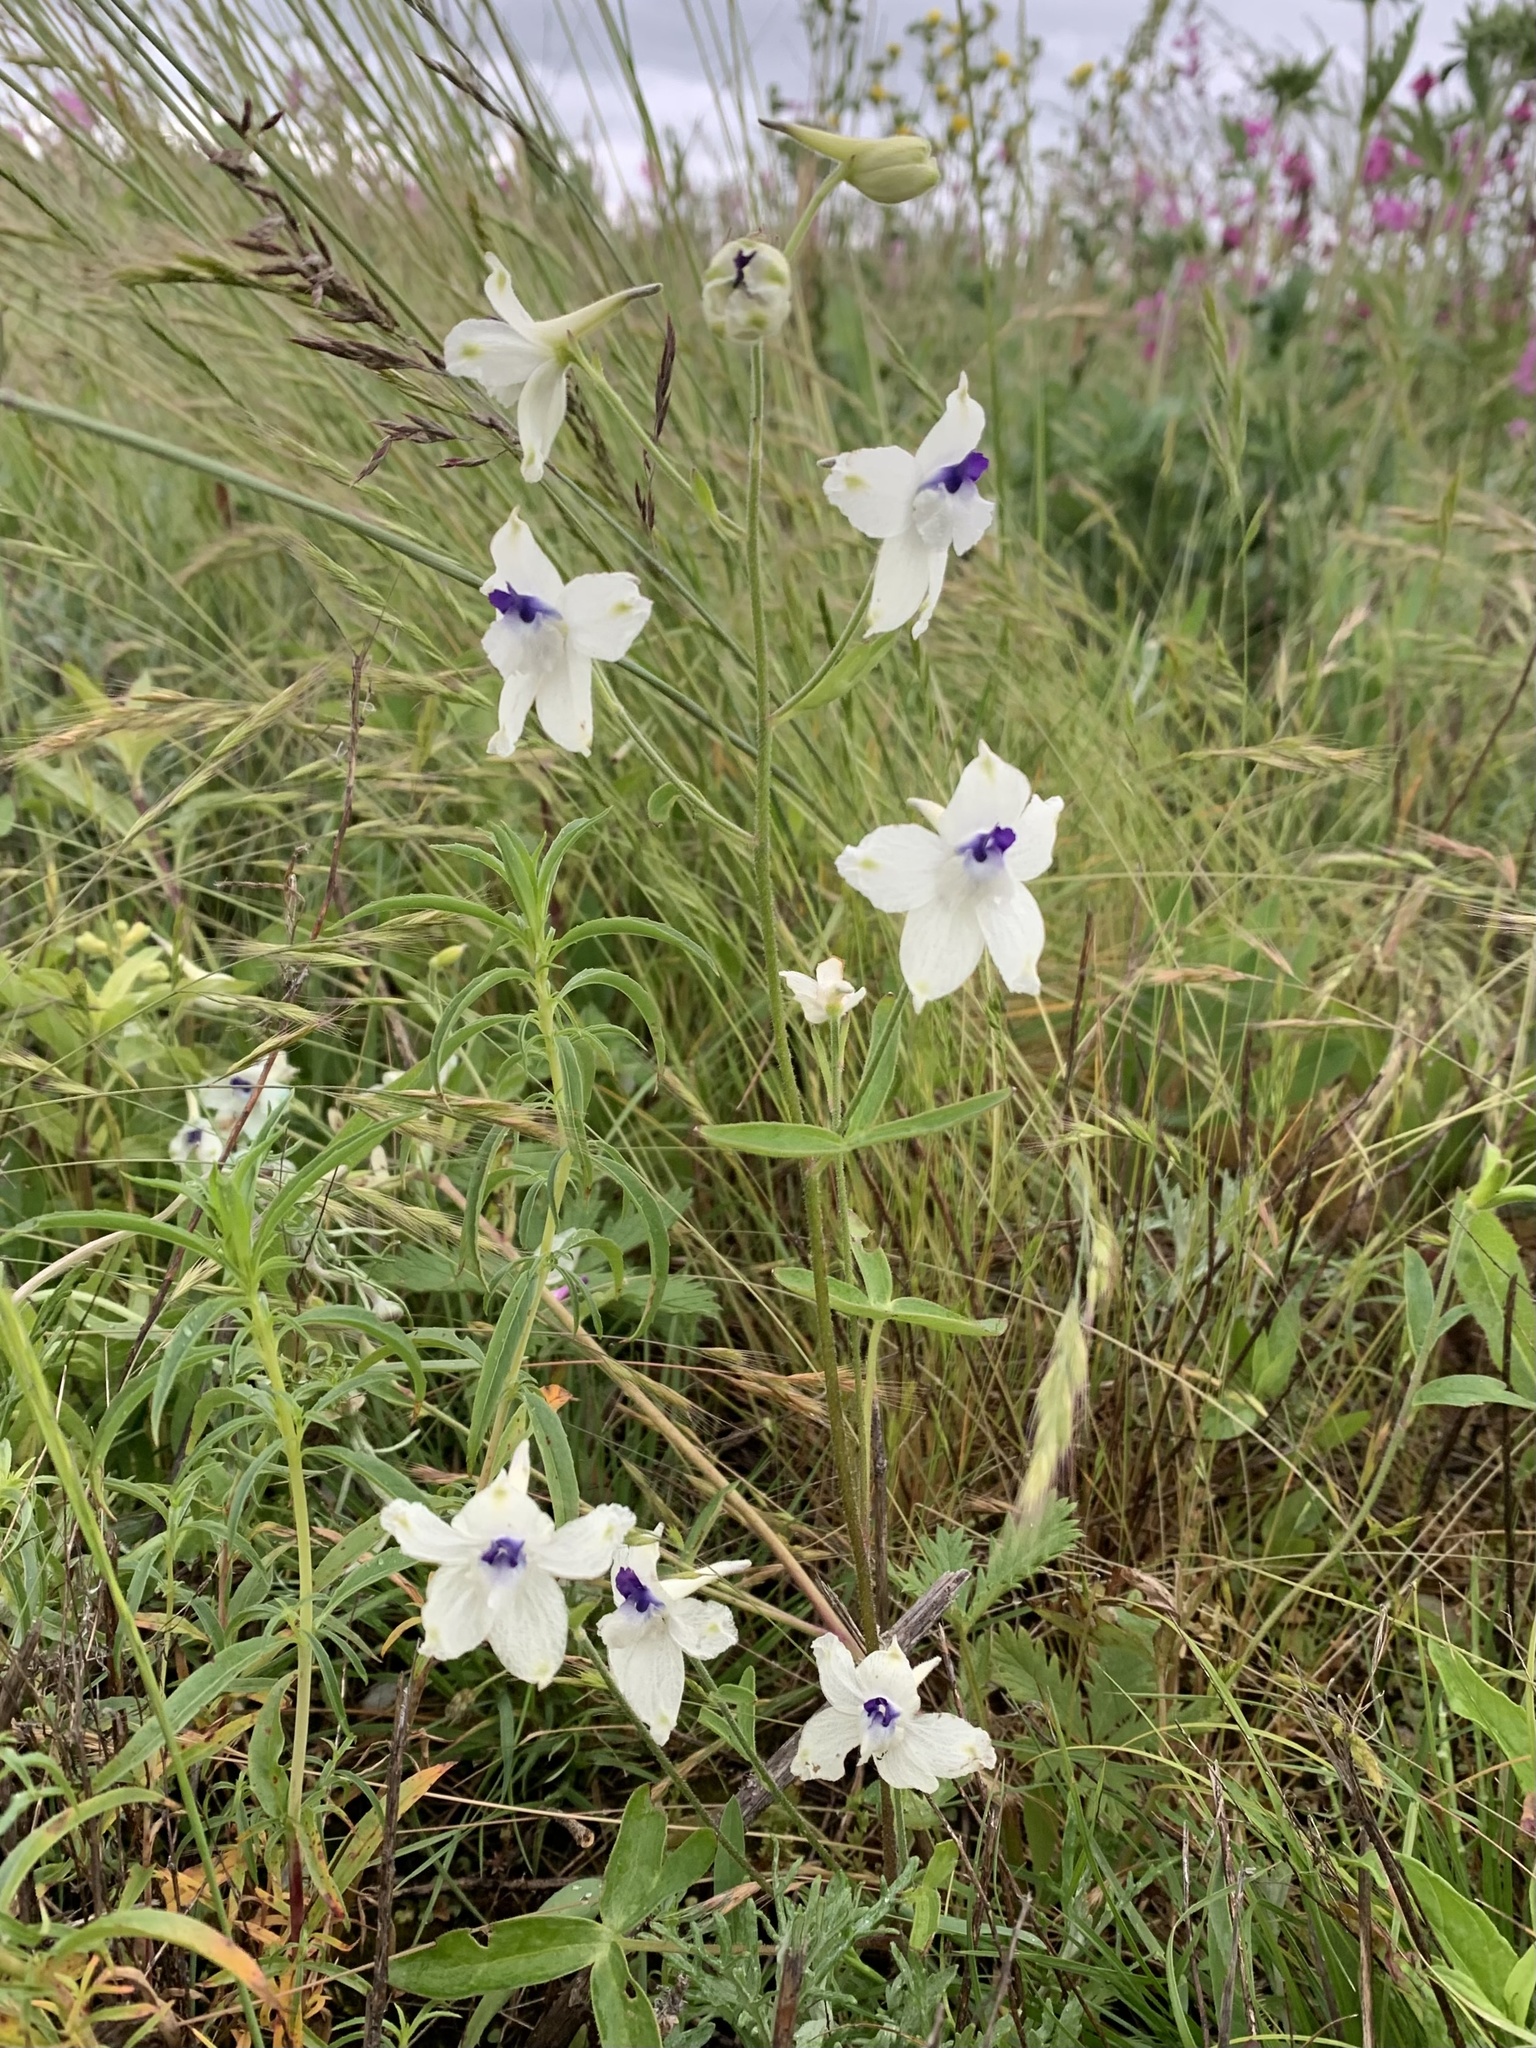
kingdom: Plantae
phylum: Tracheophyta
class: Magnoliopsida
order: Ranunculales
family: Ranunculaceae
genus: Delphinium
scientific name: Delphinium pavonaceum
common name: Peacock larkspur
